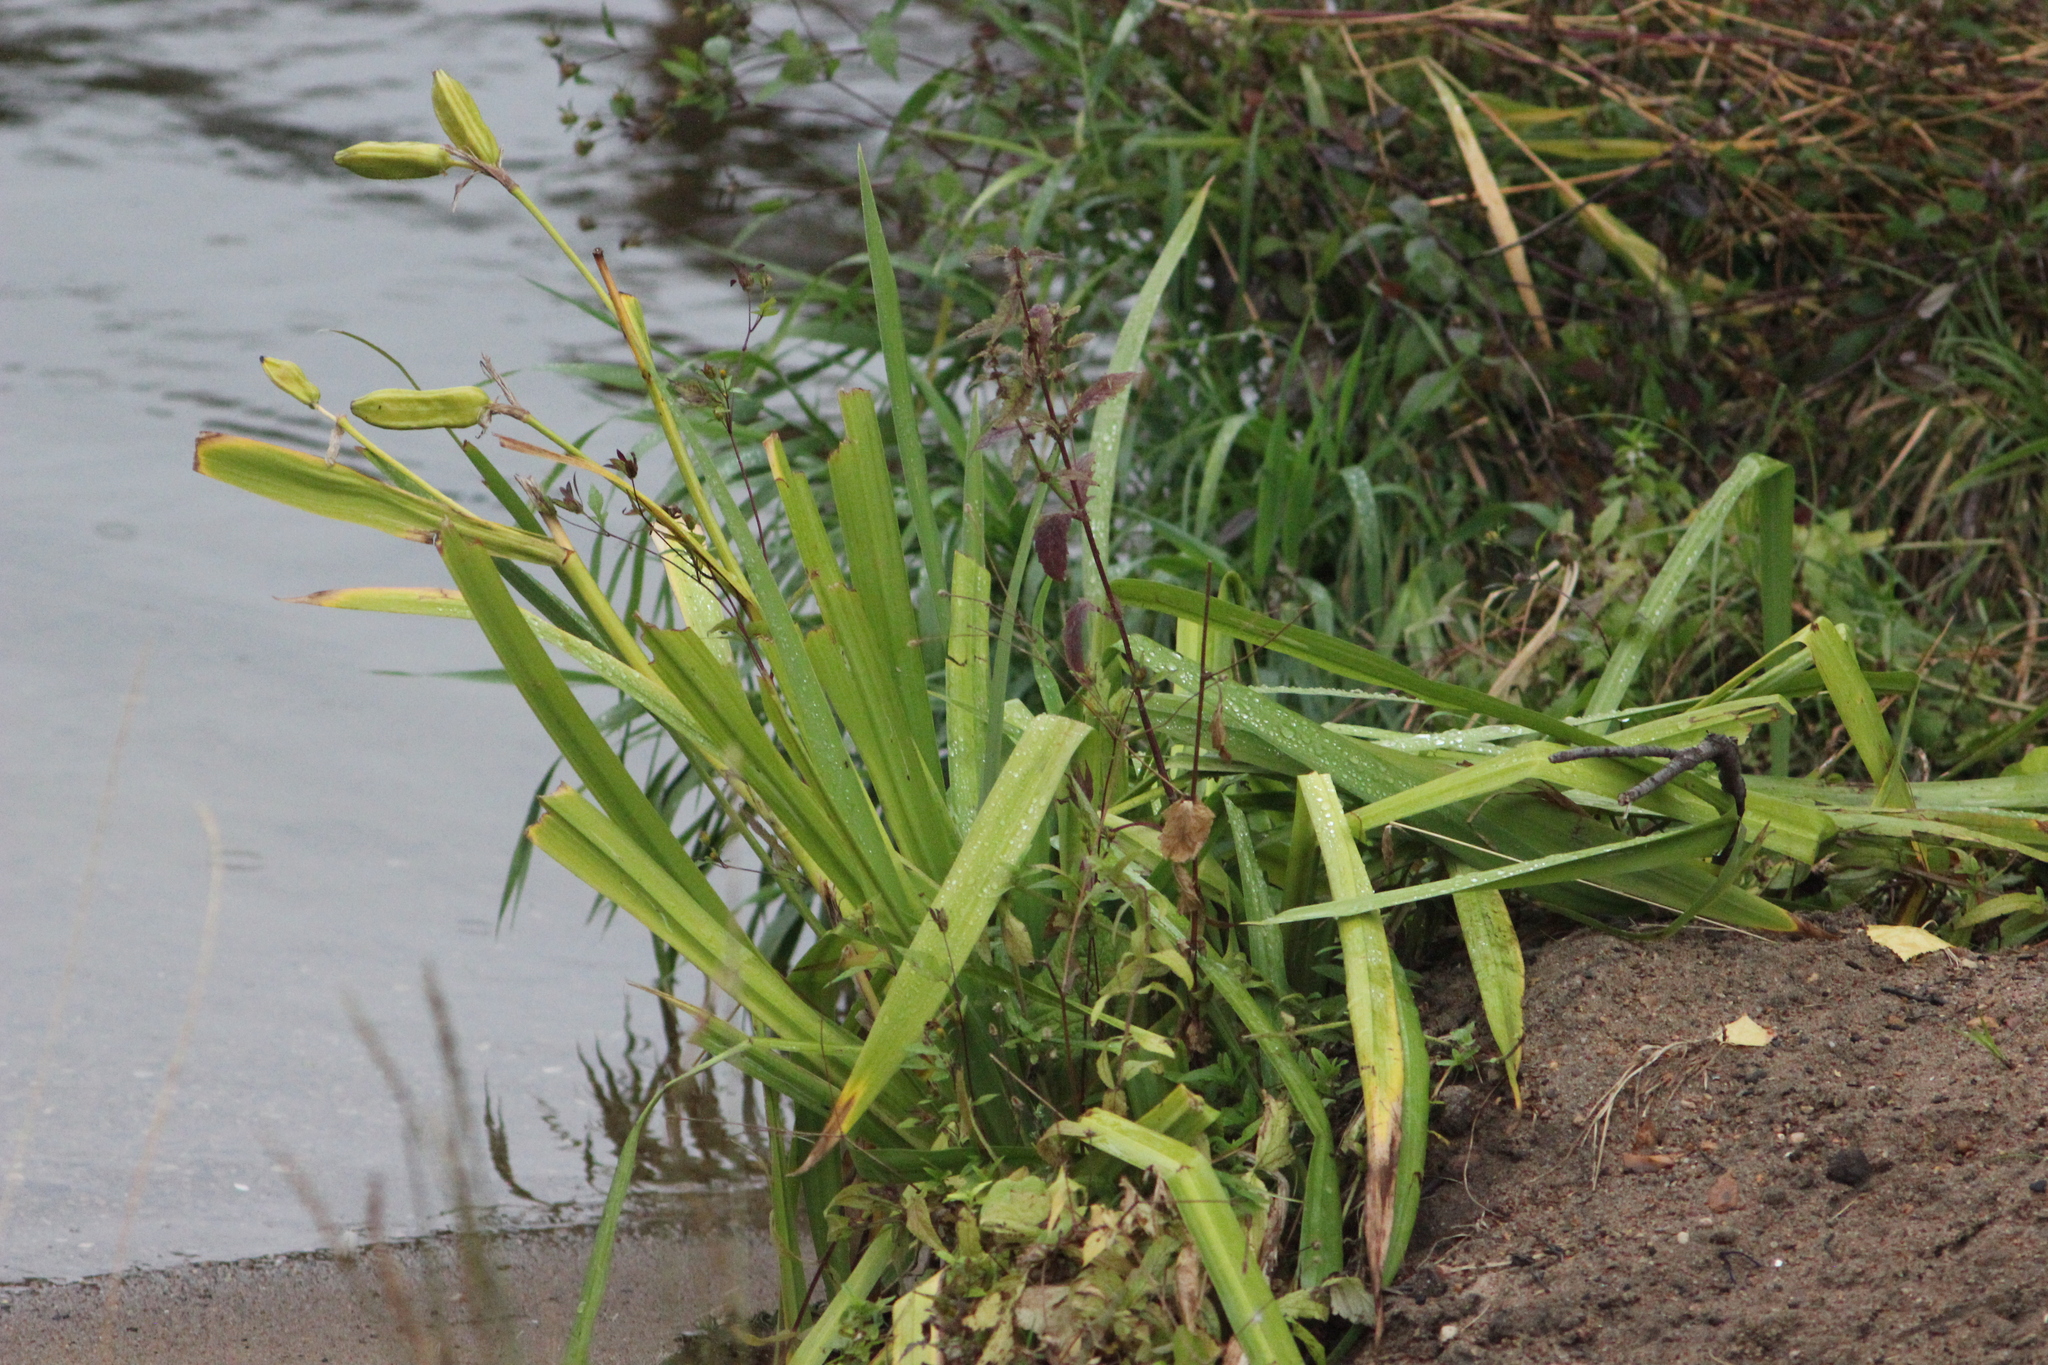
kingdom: Plantae
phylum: Tracheophyta
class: Liliopsida
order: Asparagales
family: Iridaceae
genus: Iris
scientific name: Iris pseudacorus
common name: Yellow flag
